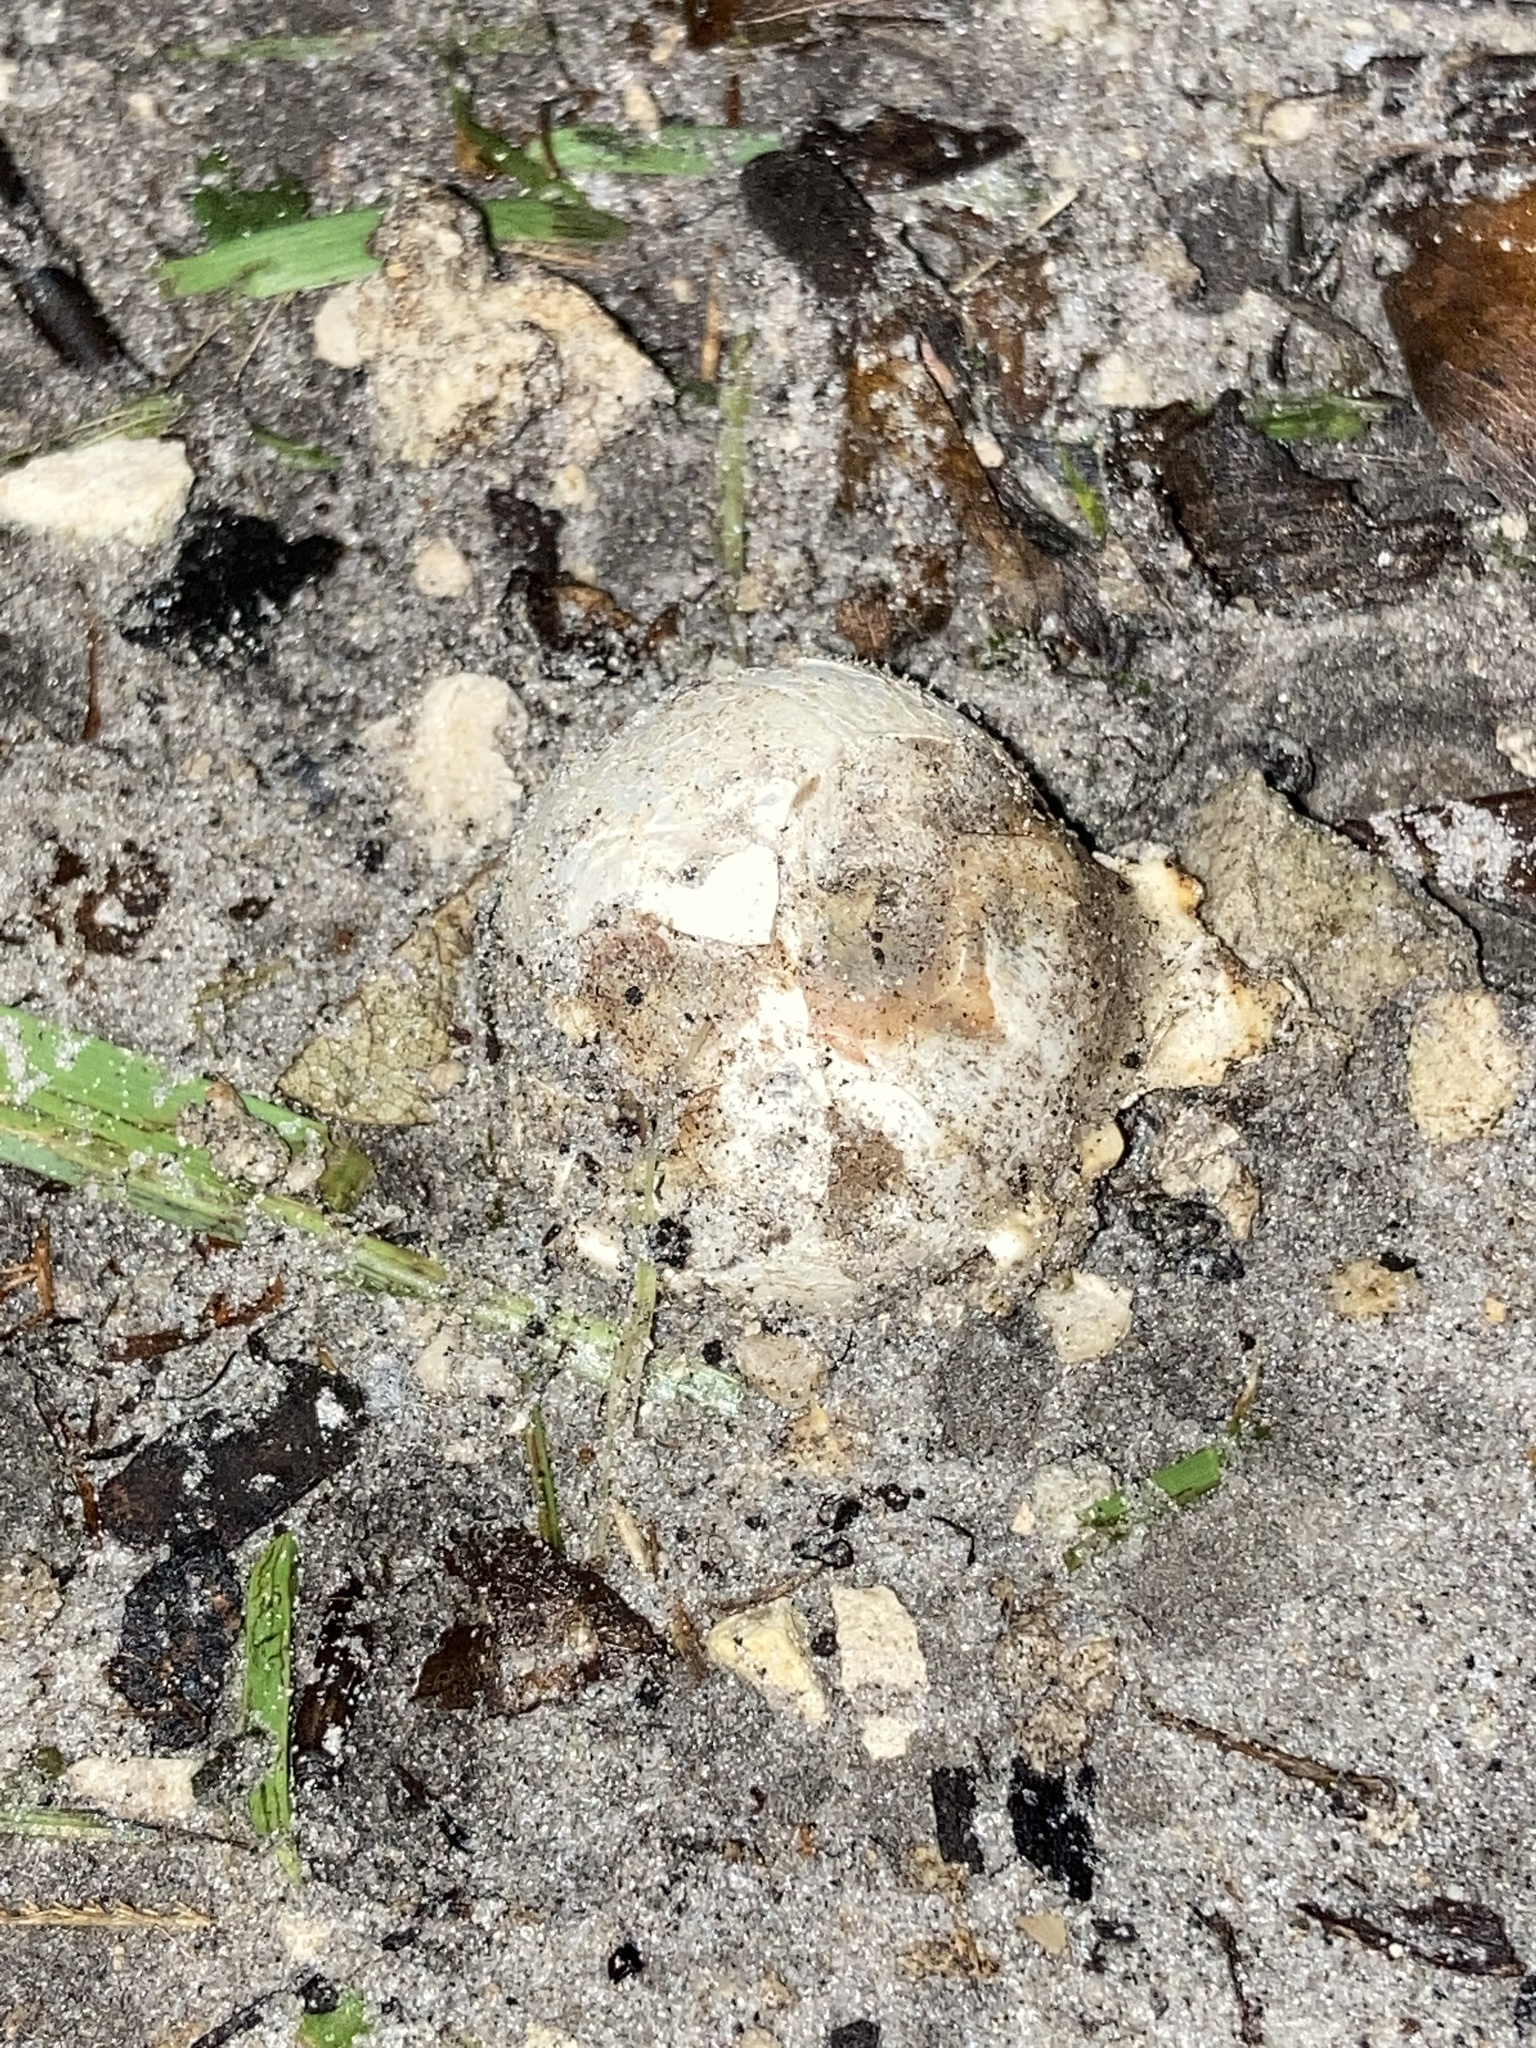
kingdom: Fungi
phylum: Basidiomycota
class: Agaricomycetes
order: Phallales
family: Phallaceae
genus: Clathrus
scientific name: Clathrus crispatus
